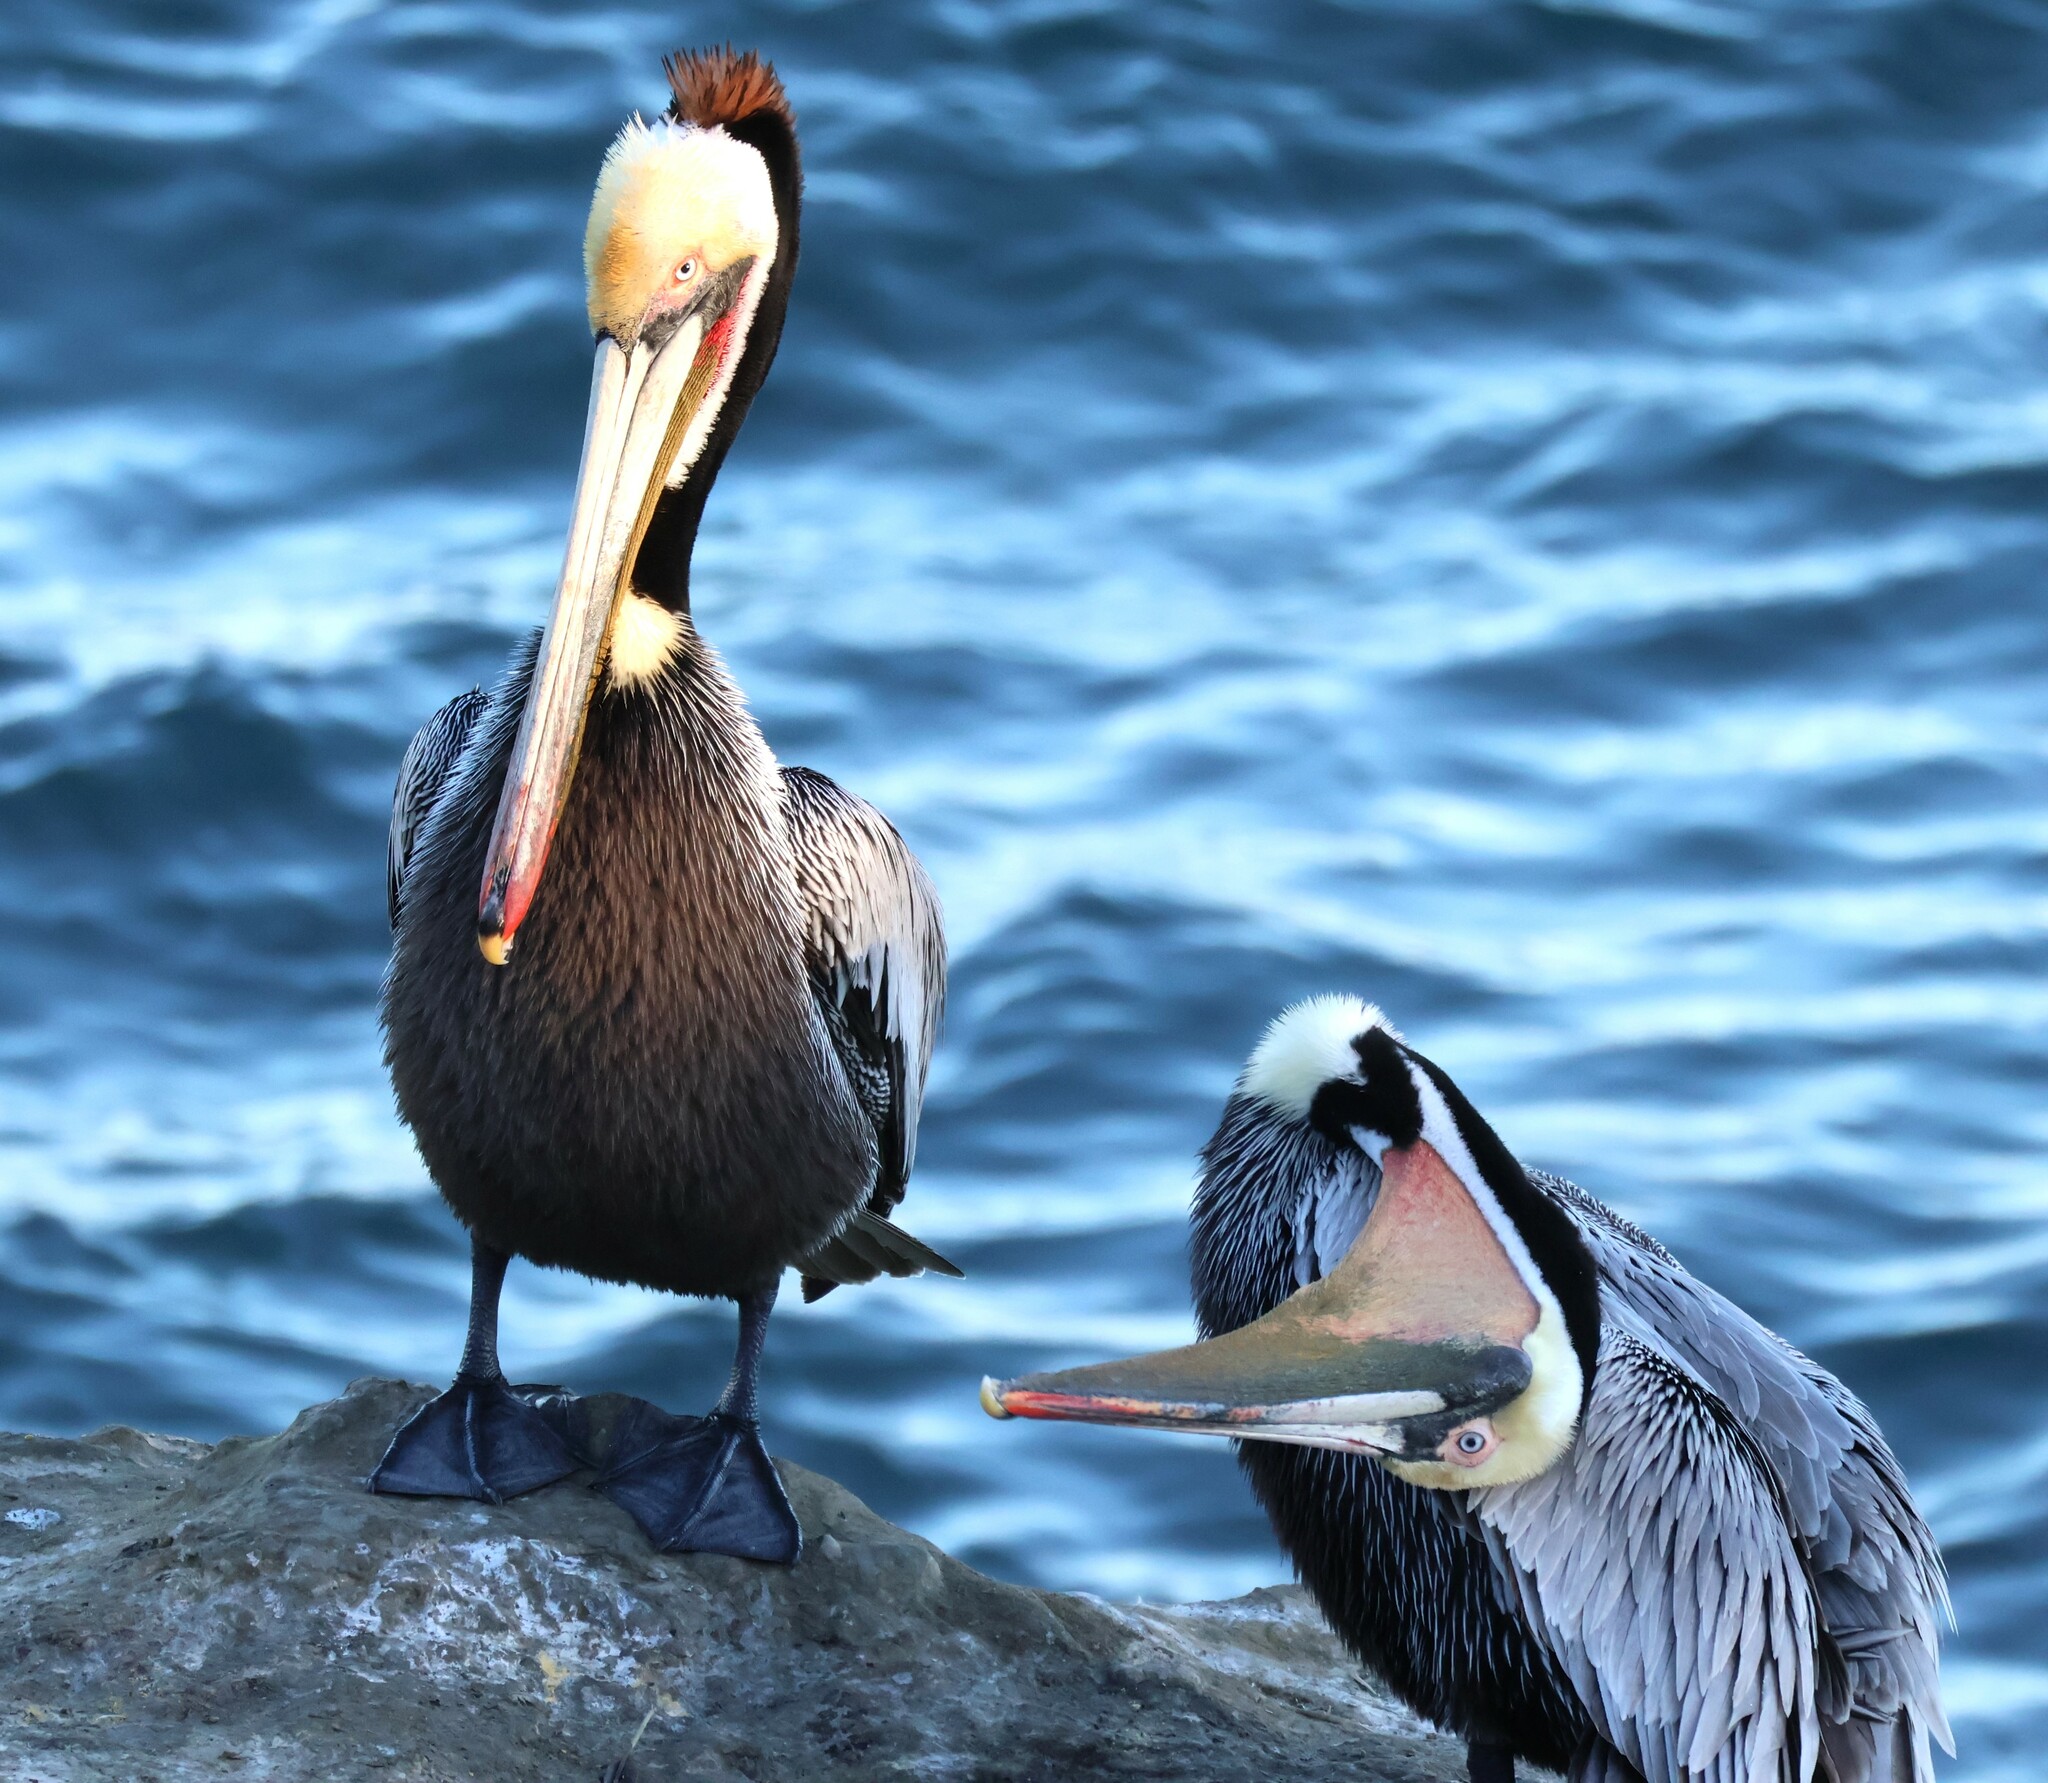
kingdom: Animalia
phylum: Chordata
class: Aves
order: Pelecaniformes
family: Pelecanidae
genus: Pelecanus
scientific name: Pelecanus occidentalis
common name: Brown pelican
